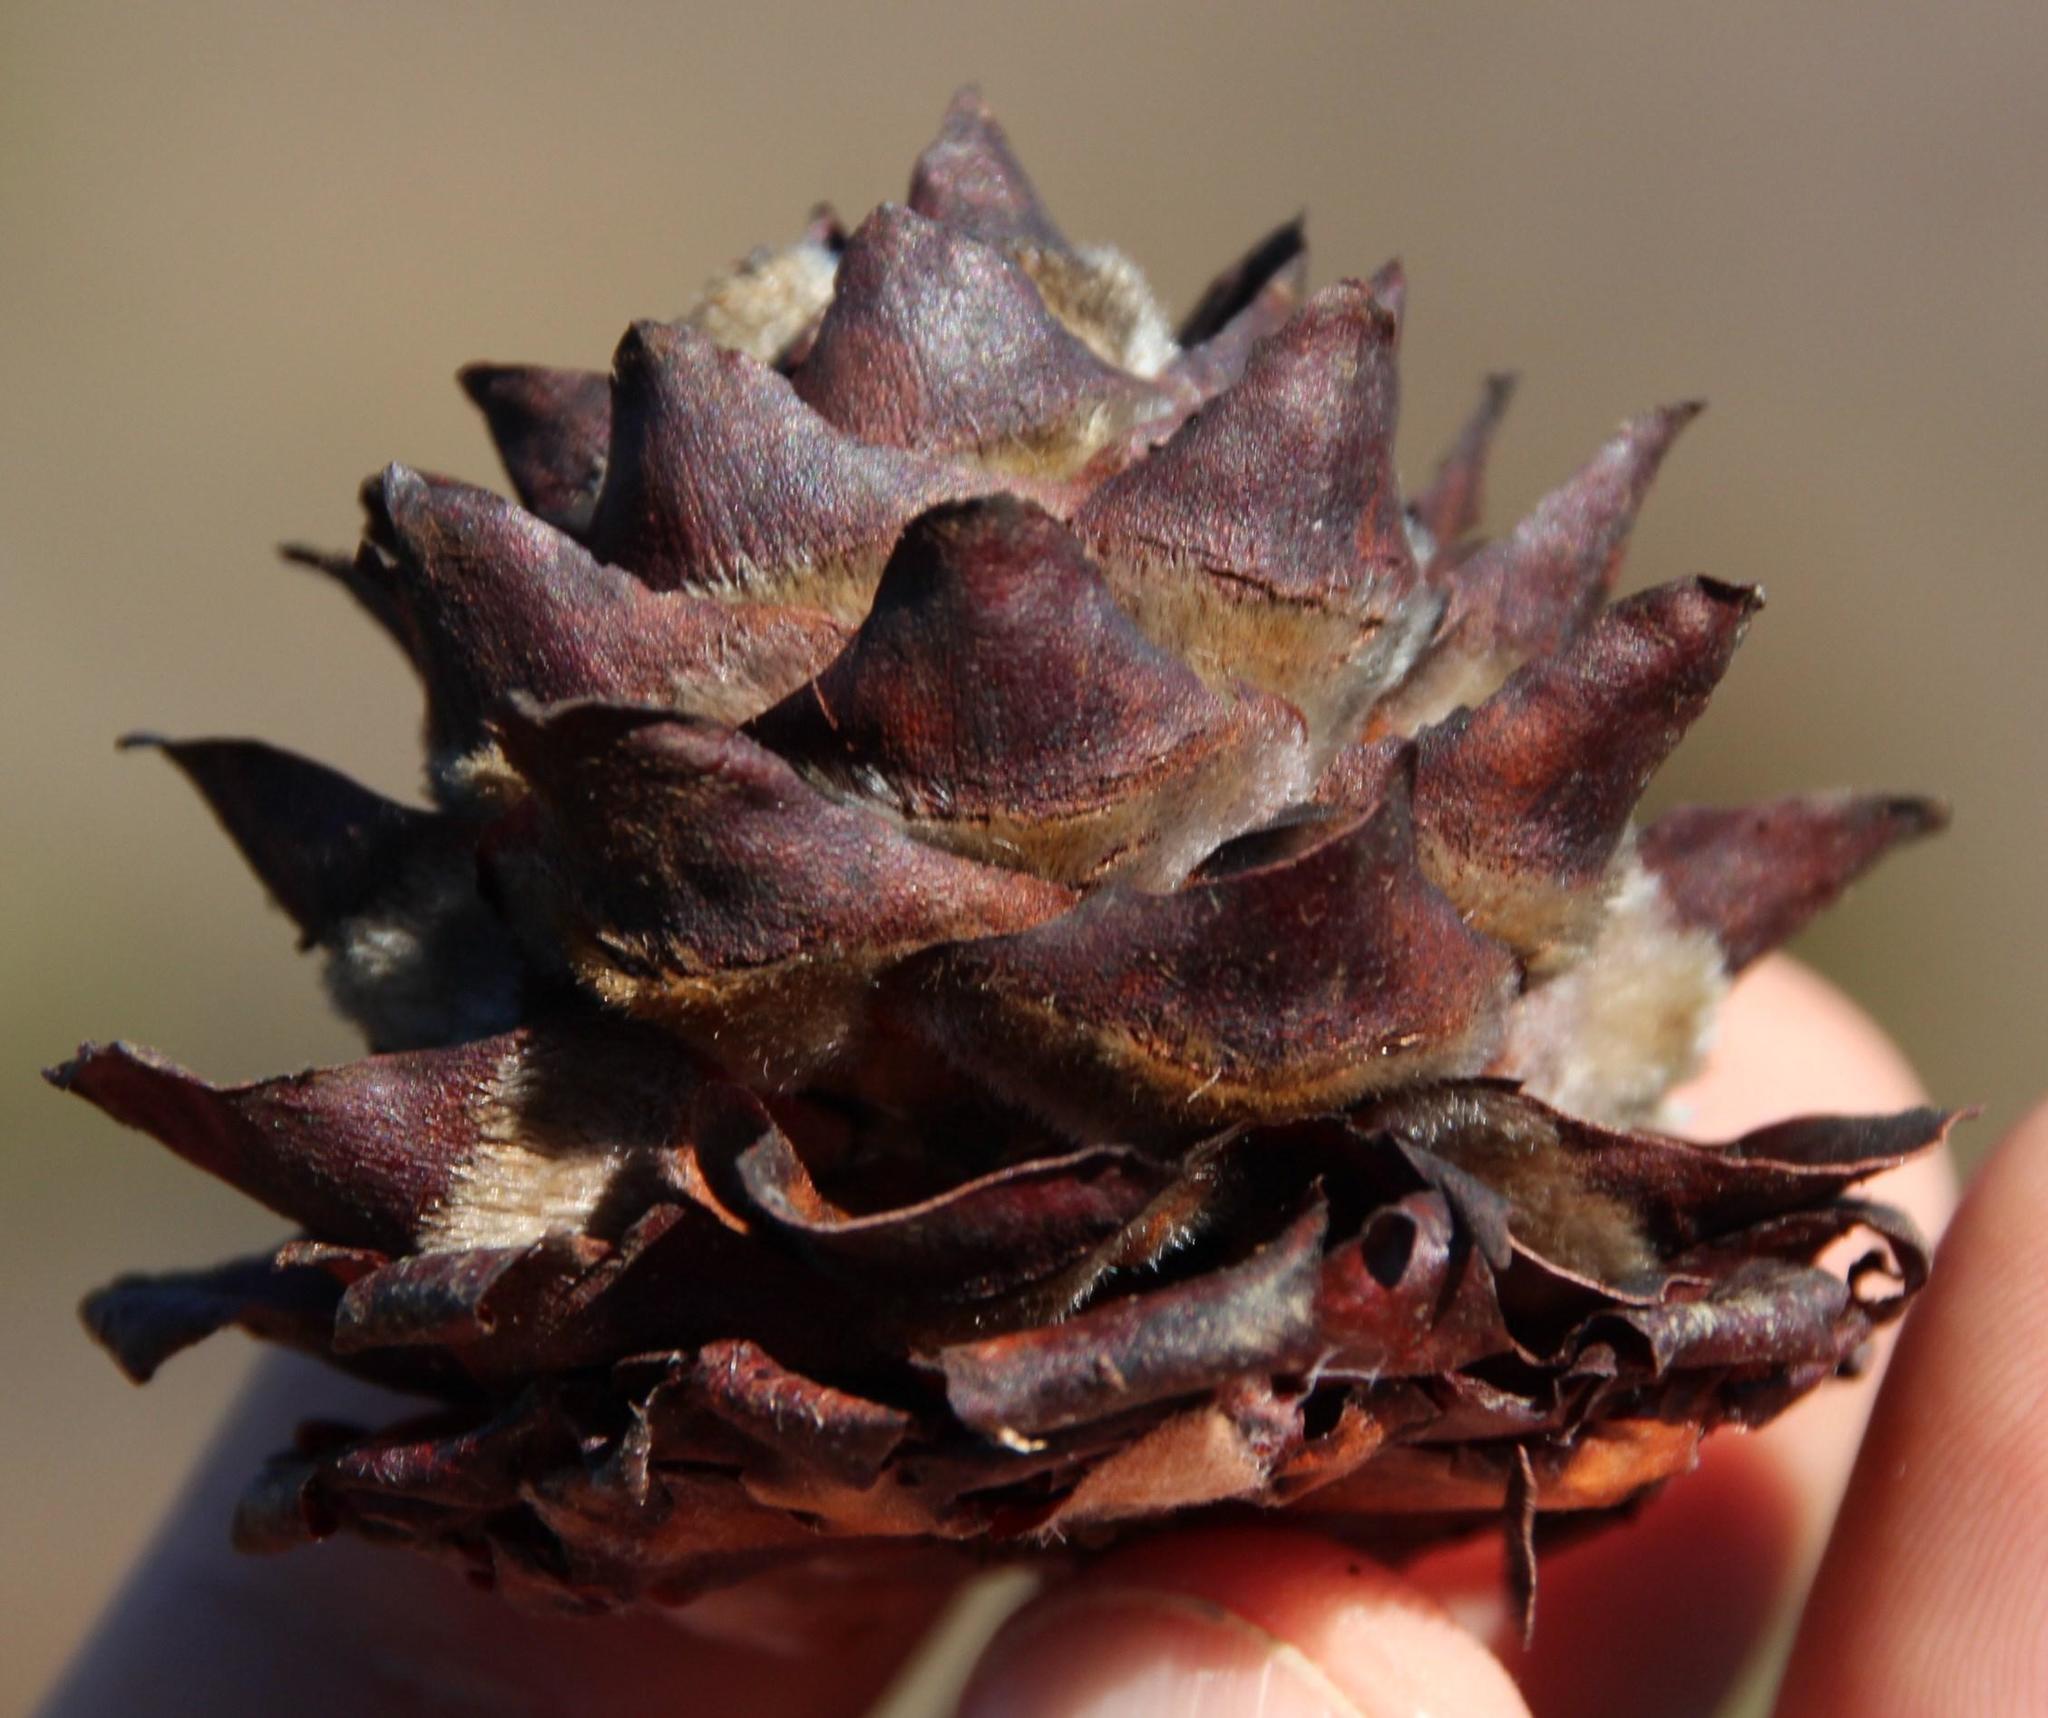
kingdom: Plantae
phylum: Tracheophyta
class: Magnoliopsida
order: Proteales
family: Proteaceae
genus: Leucadendron
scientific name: Leucadendron burchellii
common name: Riviersonderend conebush
